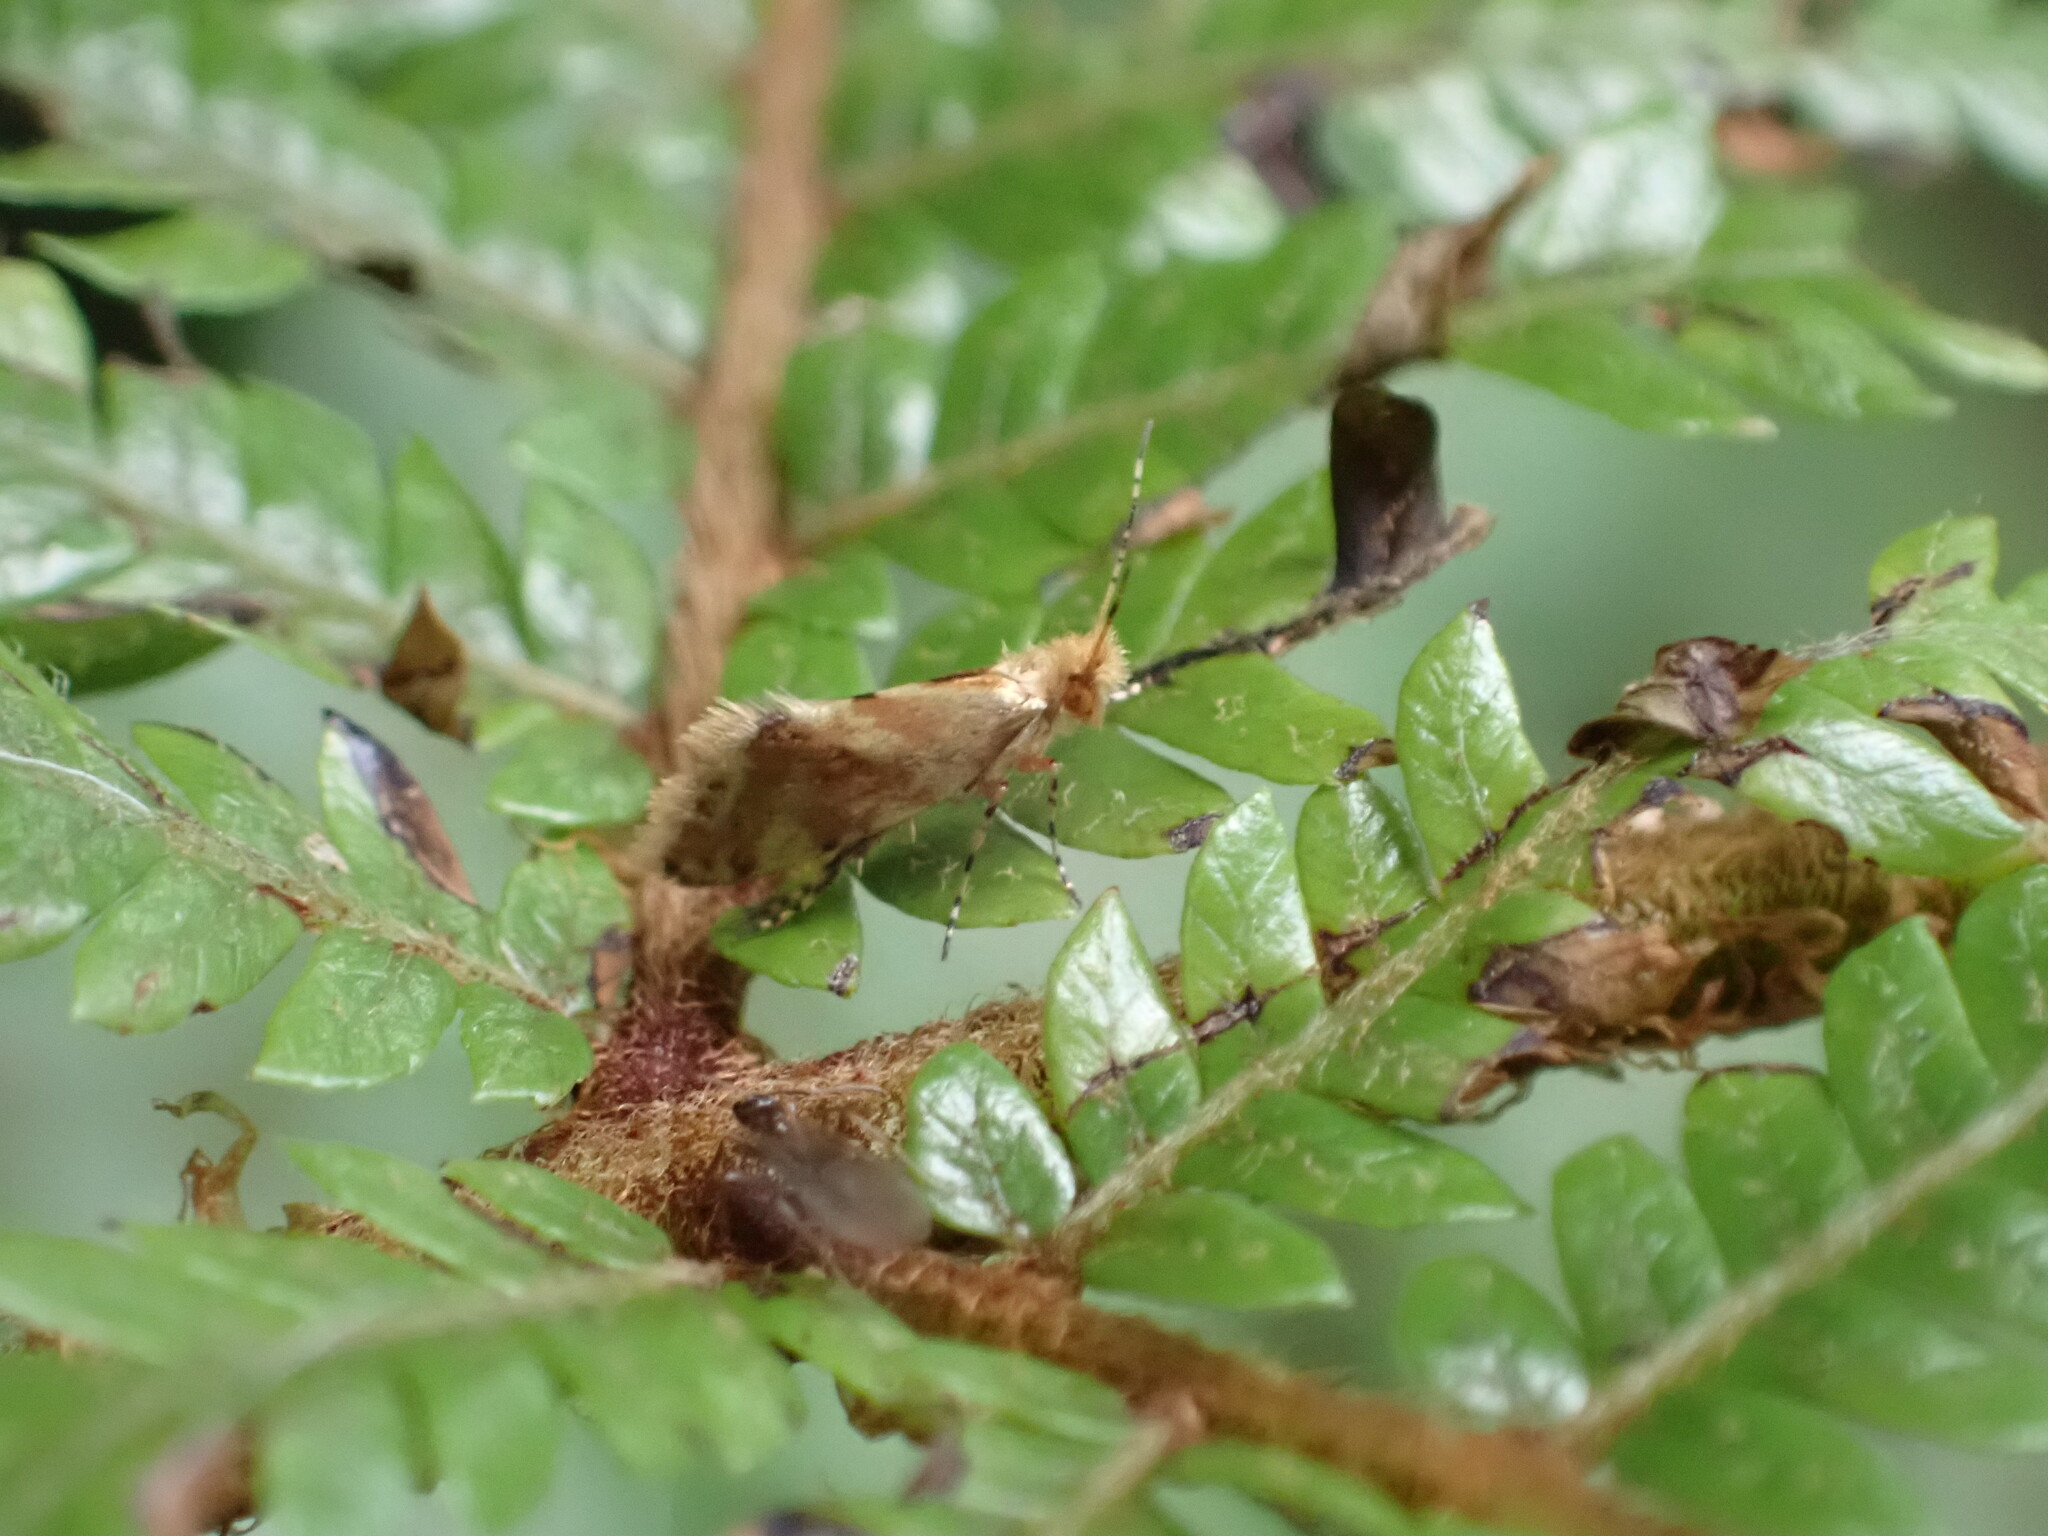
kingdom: Animalia
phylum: Arthropoda
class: Insecta
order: Lepidoptera
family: Micropterigidae
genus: Sabatinca
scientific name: Sabatinca chalcophanes
